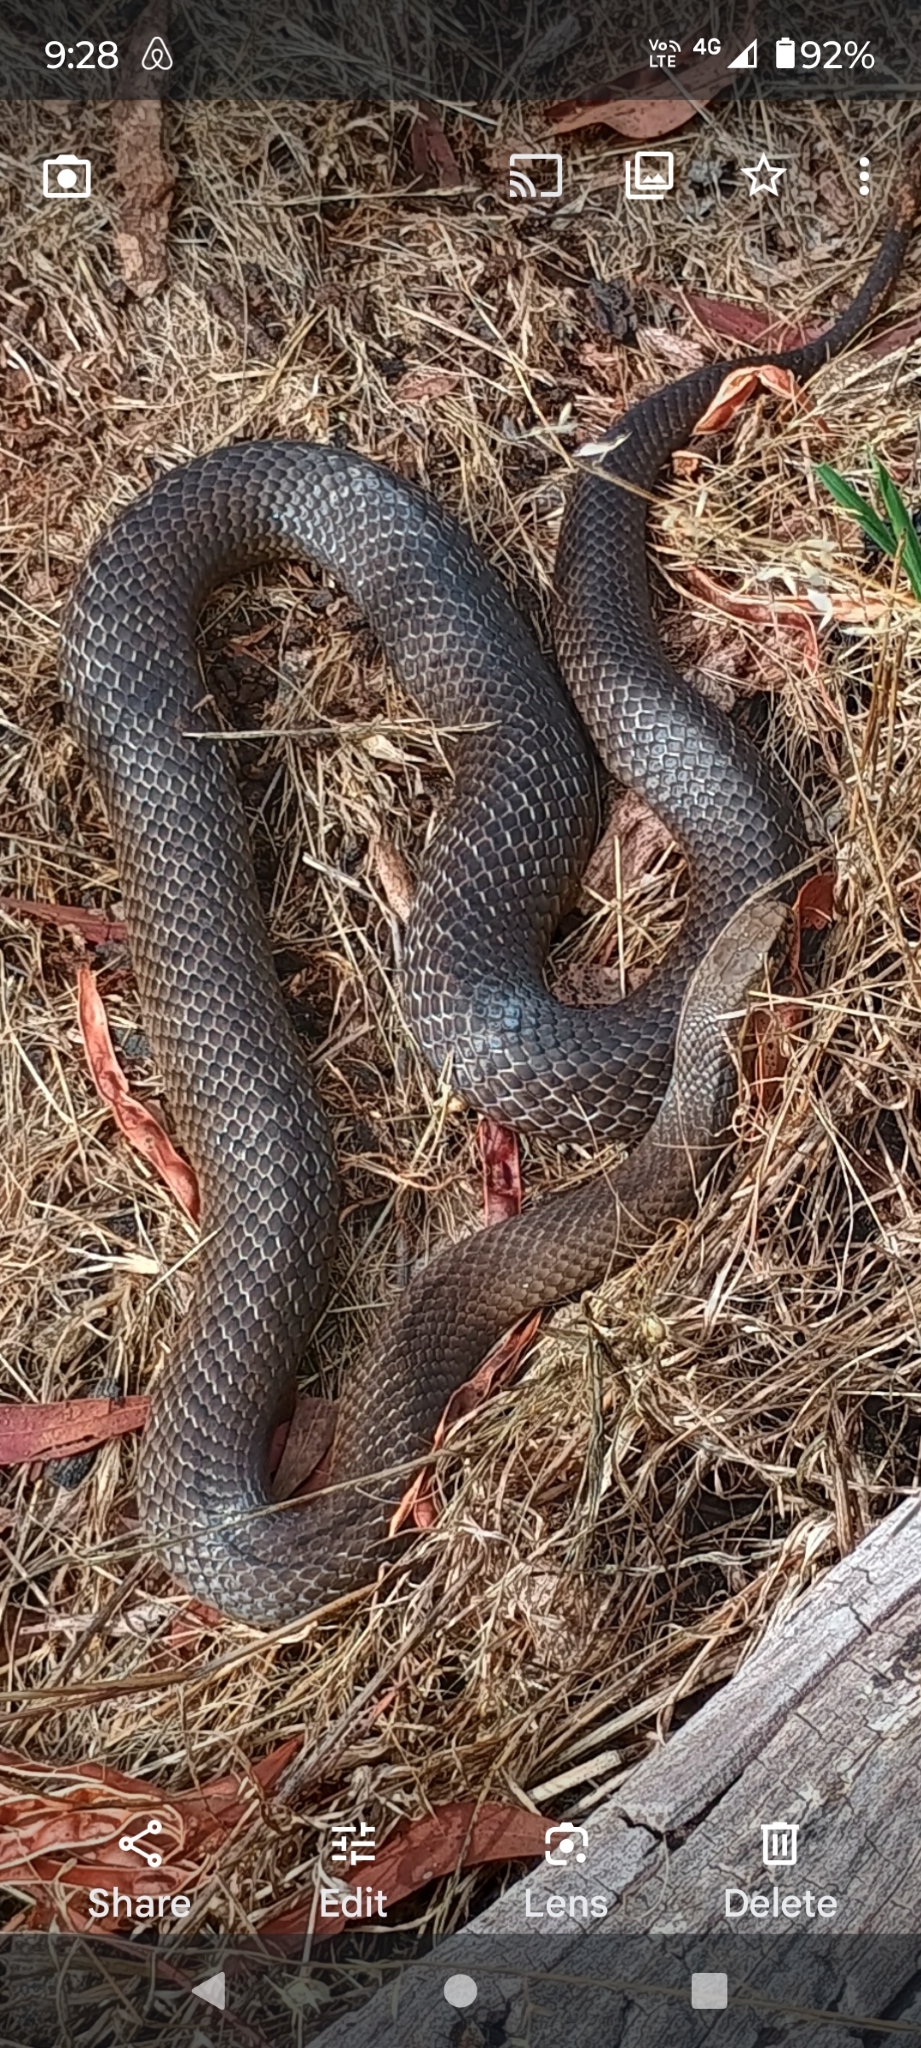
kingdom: Animalia
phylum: Chordata
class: Squamata
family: Elapidae
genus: Pseudonaja
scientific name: Pseudonaja textilis
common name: Eastern brown snake
